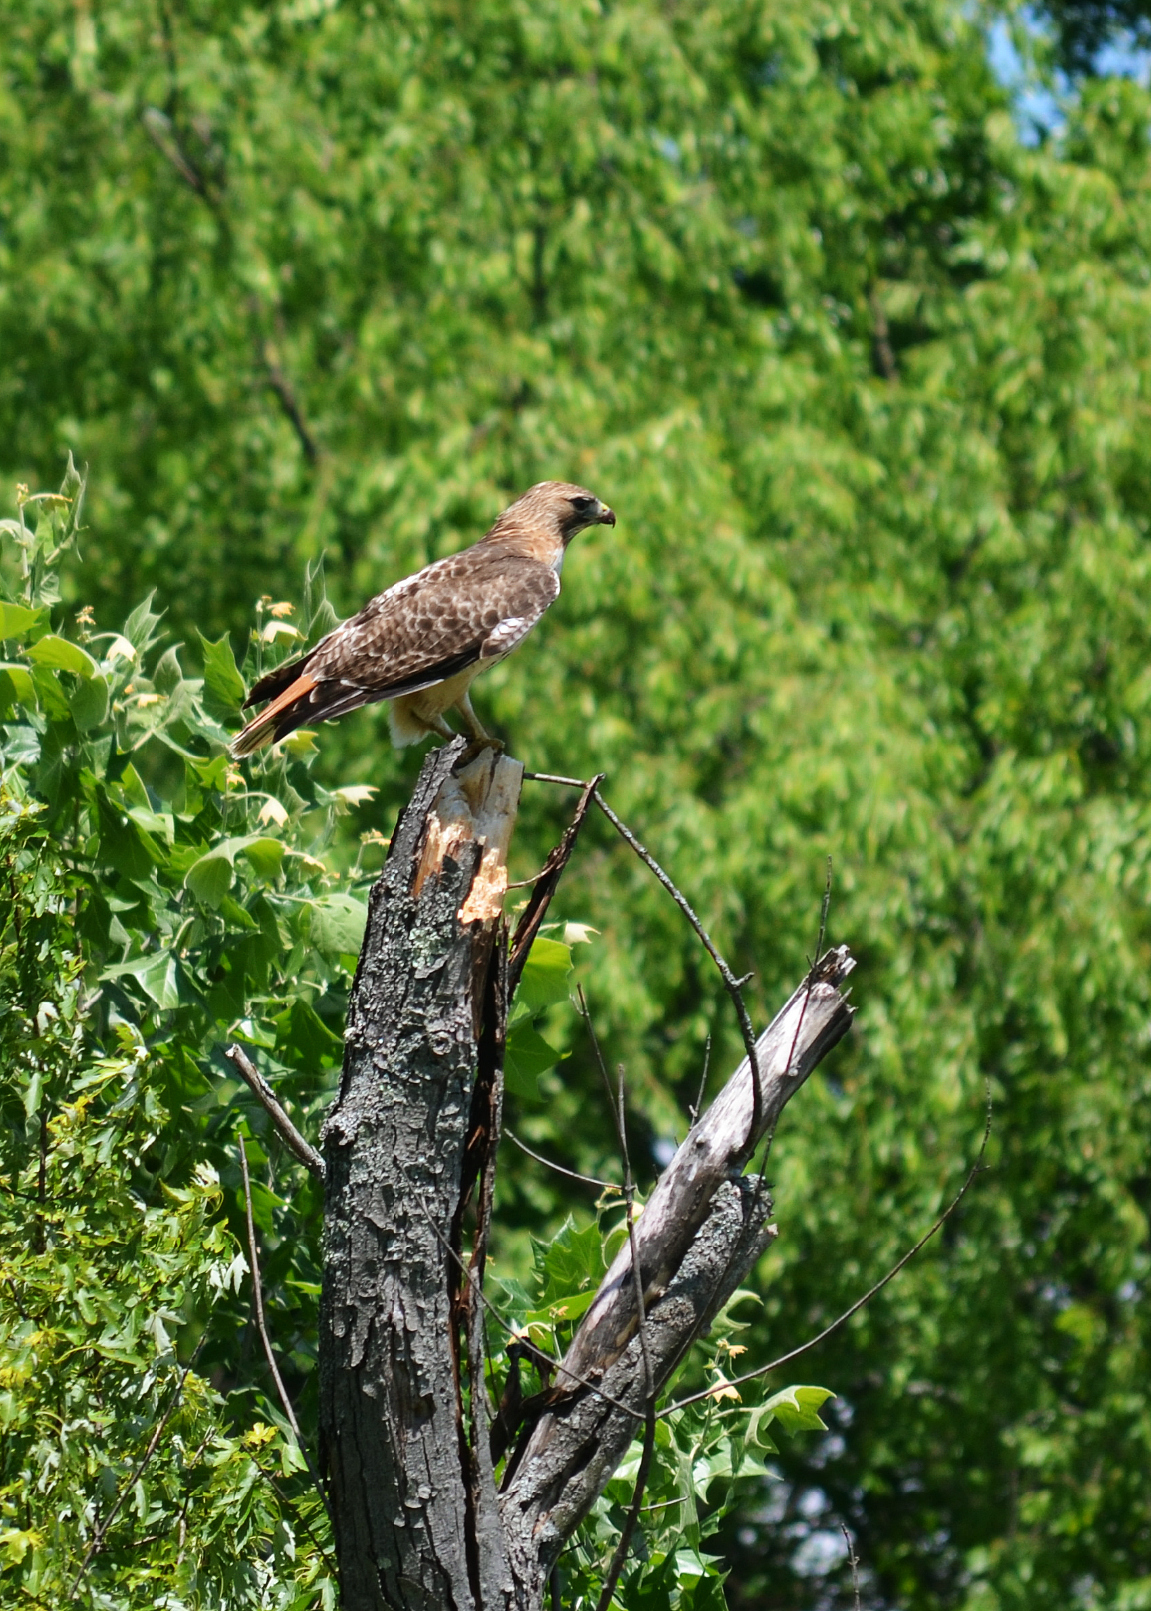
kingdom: Animalia
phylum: Chordata
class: Aves
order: Accipitriformes
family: Accipitridae
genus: Buteo
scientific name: Buteo jamaicensis
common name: Red-tailed hawk
